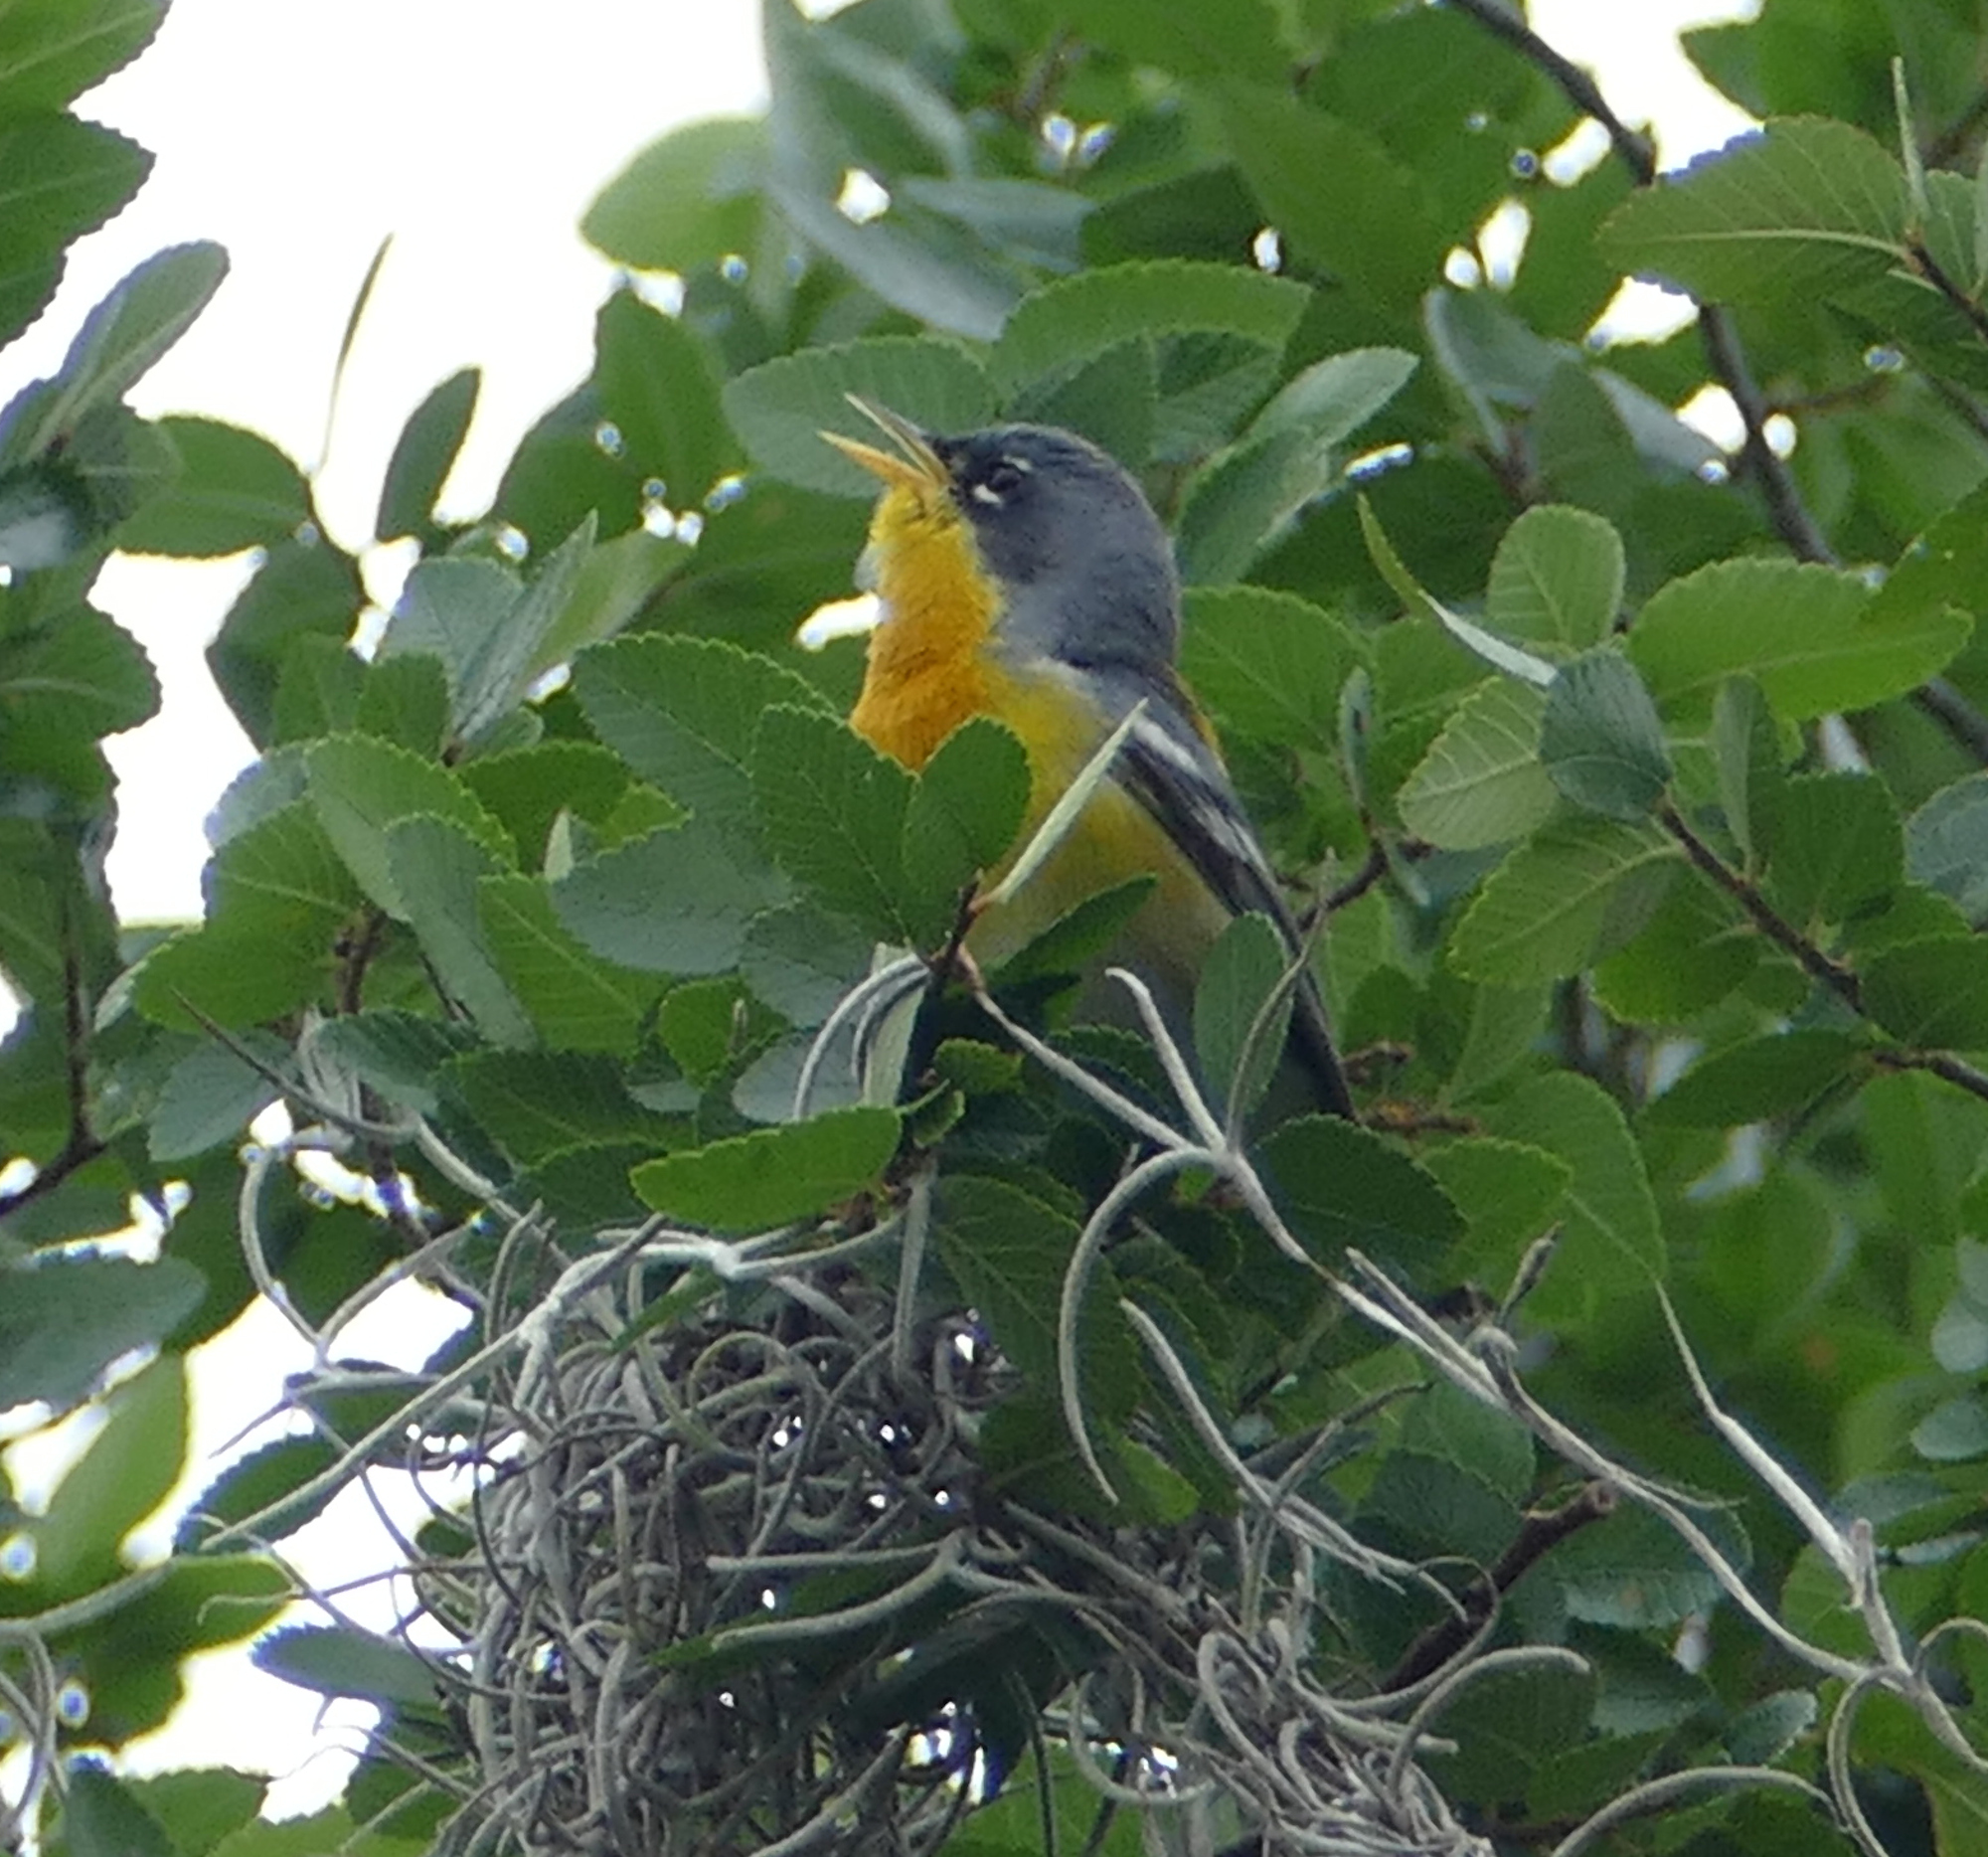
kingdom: Animalia
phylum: Chordata
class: Aves
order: Passeriformes
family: Parulidae
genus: Setophaga
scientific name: Setophaga pitiayumi
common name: Tropical parula
